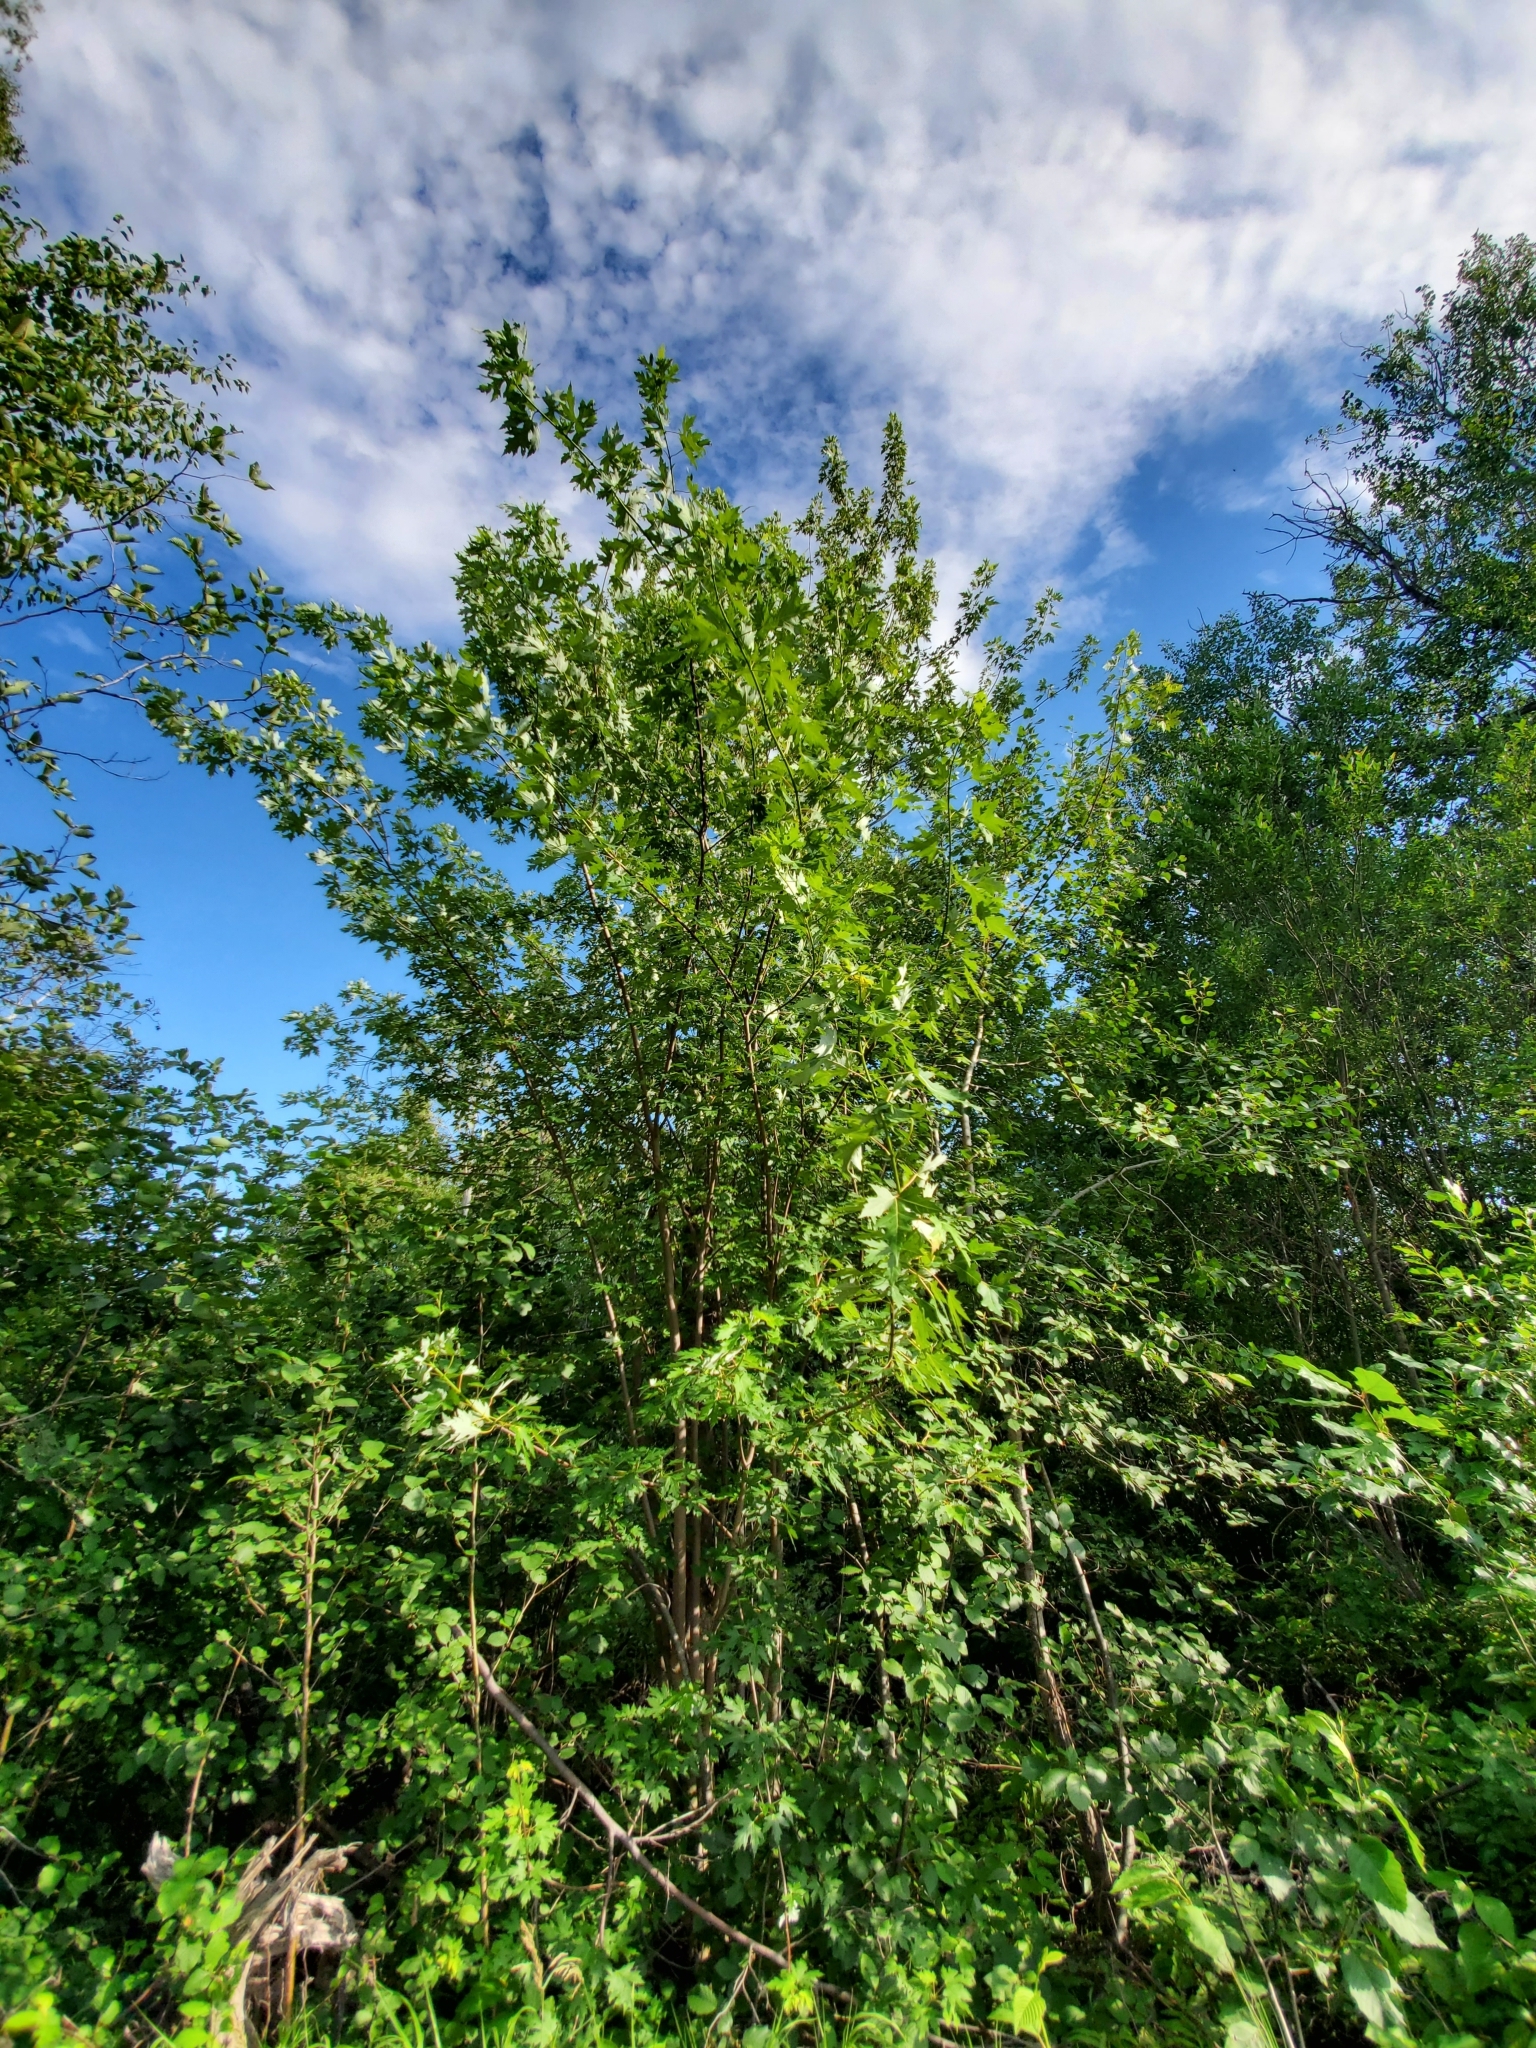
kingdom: Plantae
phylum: Tracheophyta
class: Magnoliopsida
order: Sapindales
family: Sapindaceae
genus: Acer
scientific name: Acer saccharinum
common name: Silver maple
